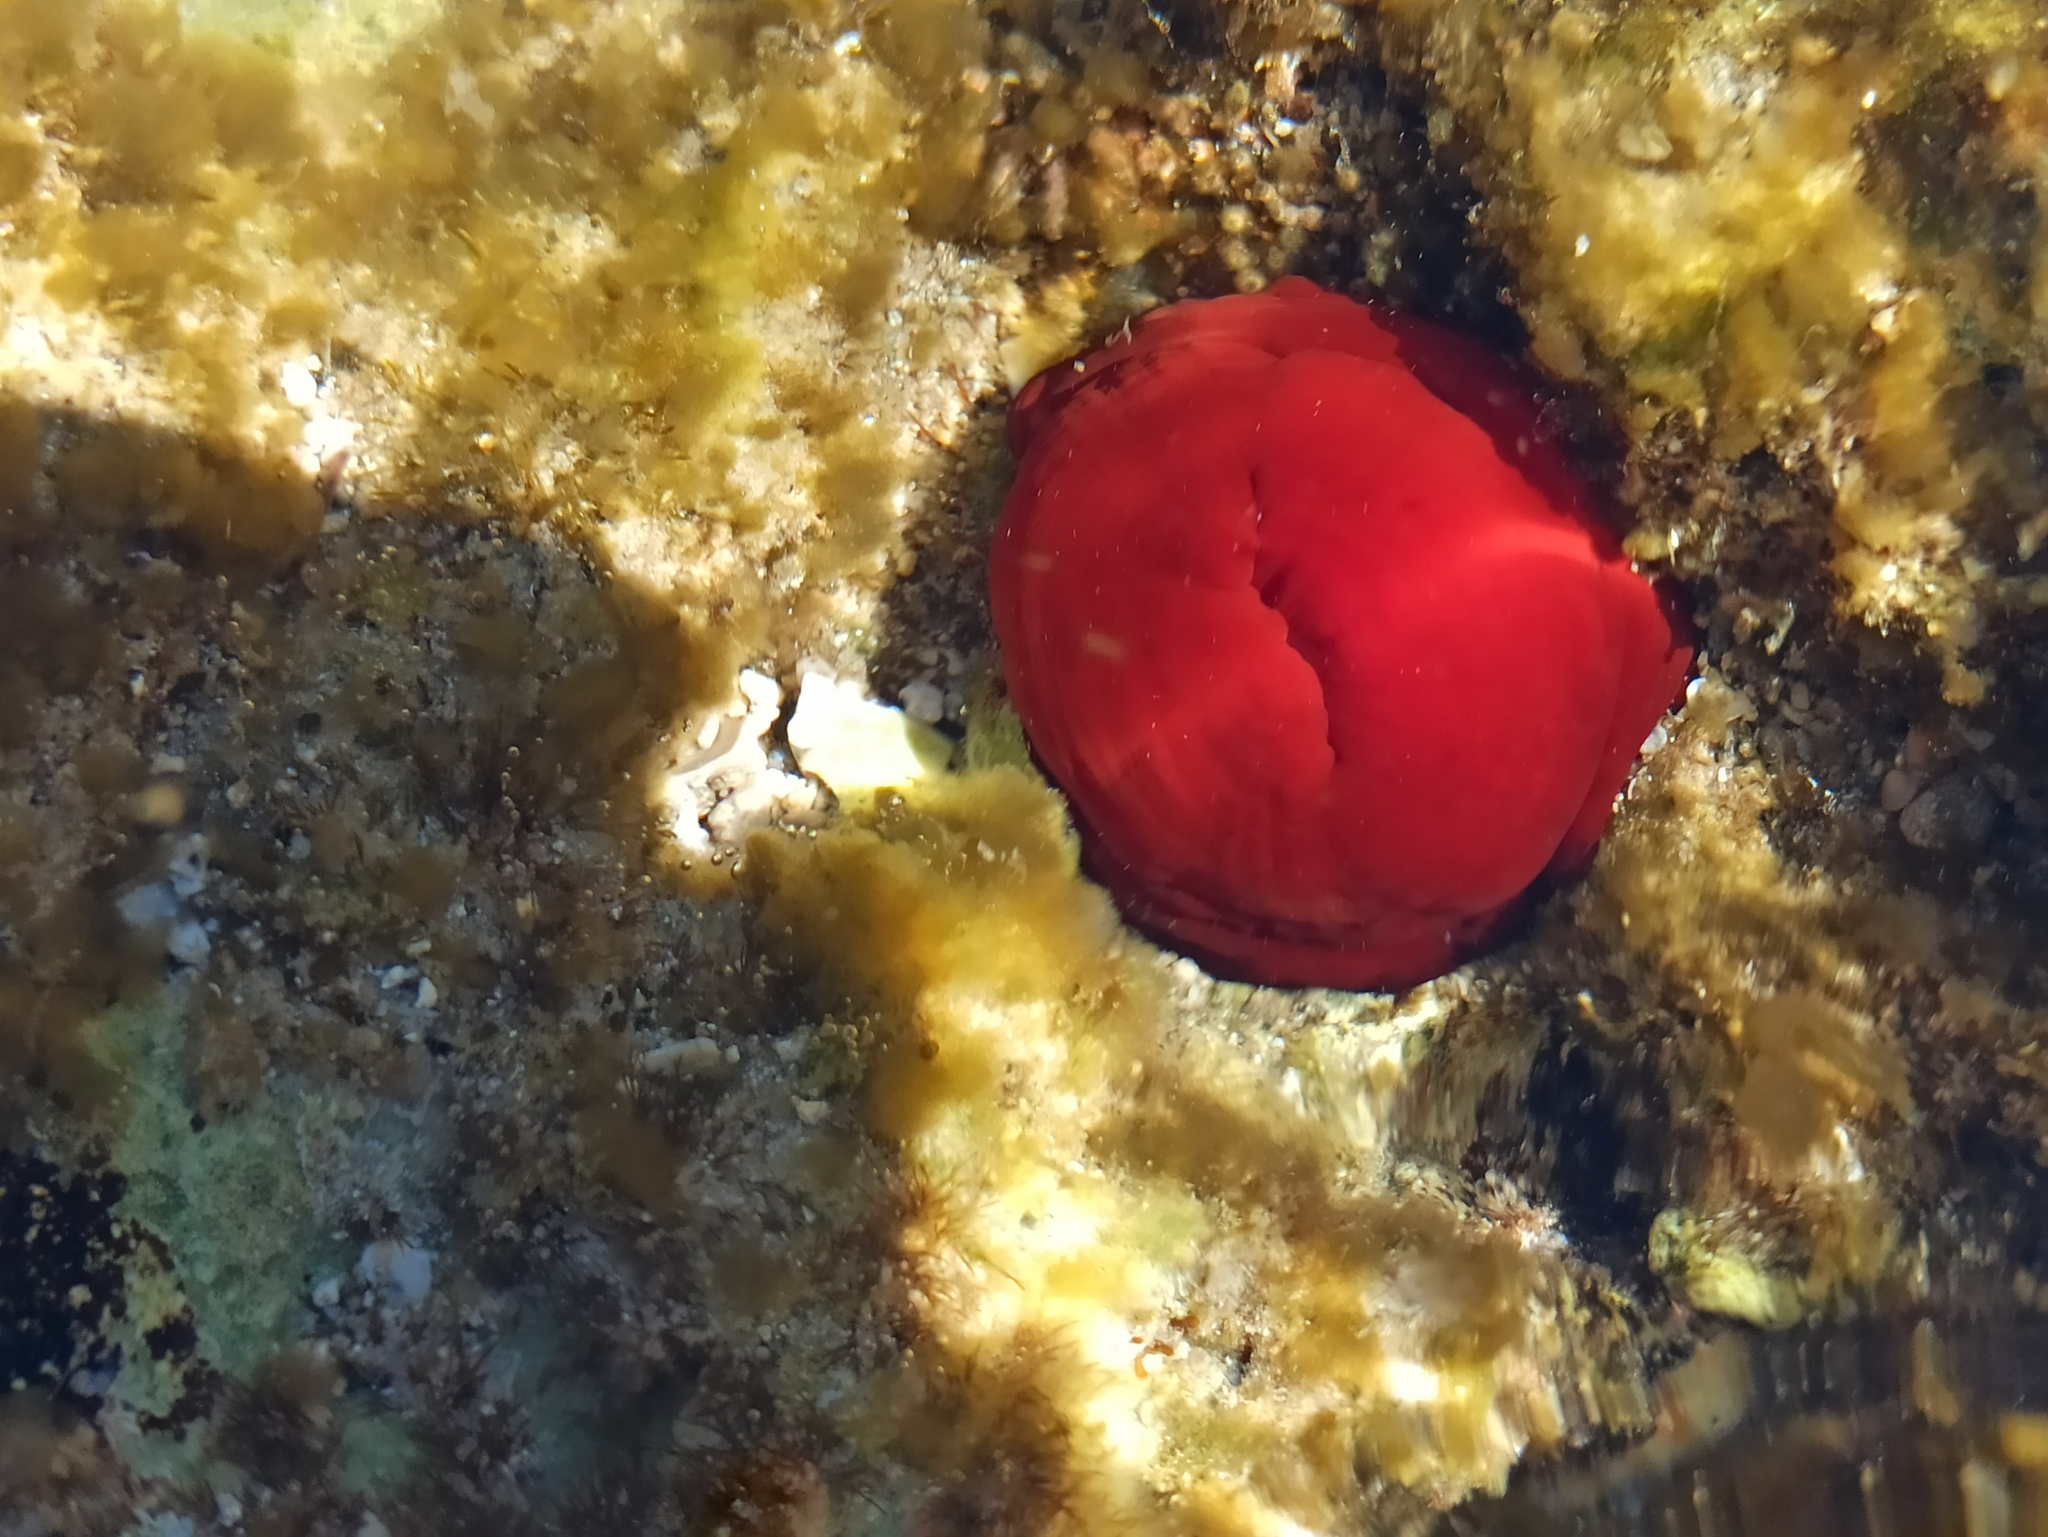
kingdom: Animalia
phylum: Cnidaria
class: Anthozoa
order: Actiniaria
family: Actiniidae
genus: Actinia
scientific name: Actinia mediterranea
